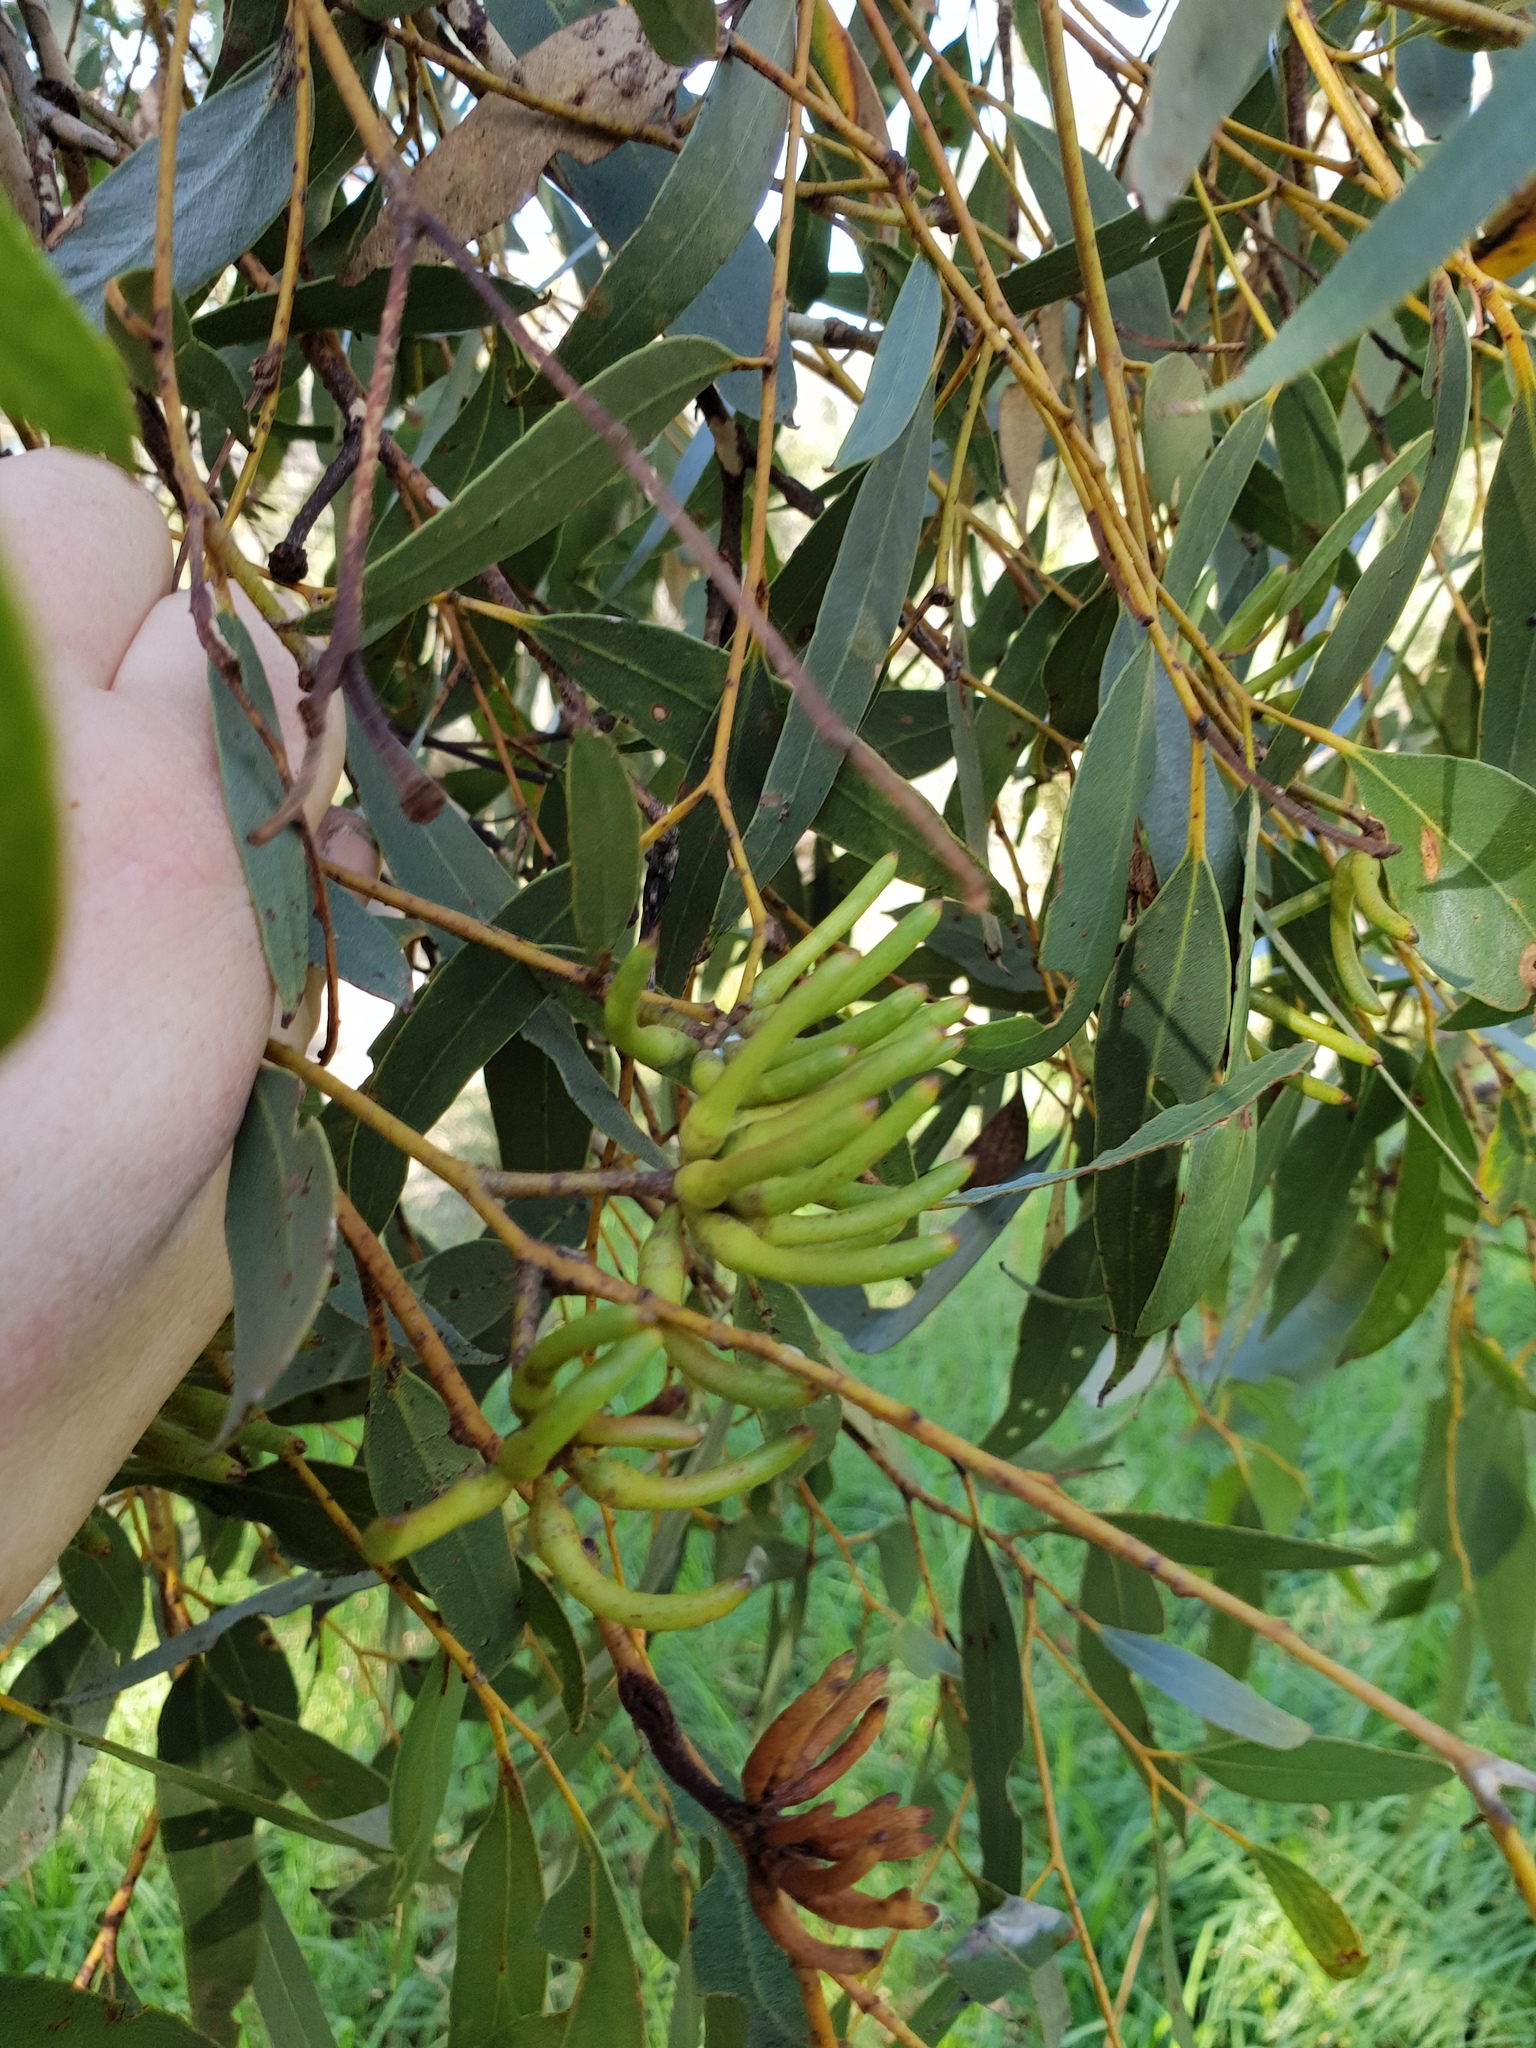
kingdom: Plantae
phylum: Tracheophyta
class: Magnoliopsida
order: Myrtales
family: Myrtaceae
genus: Eucalyptus
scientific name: Eucalyptus cornuta
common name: Yate
